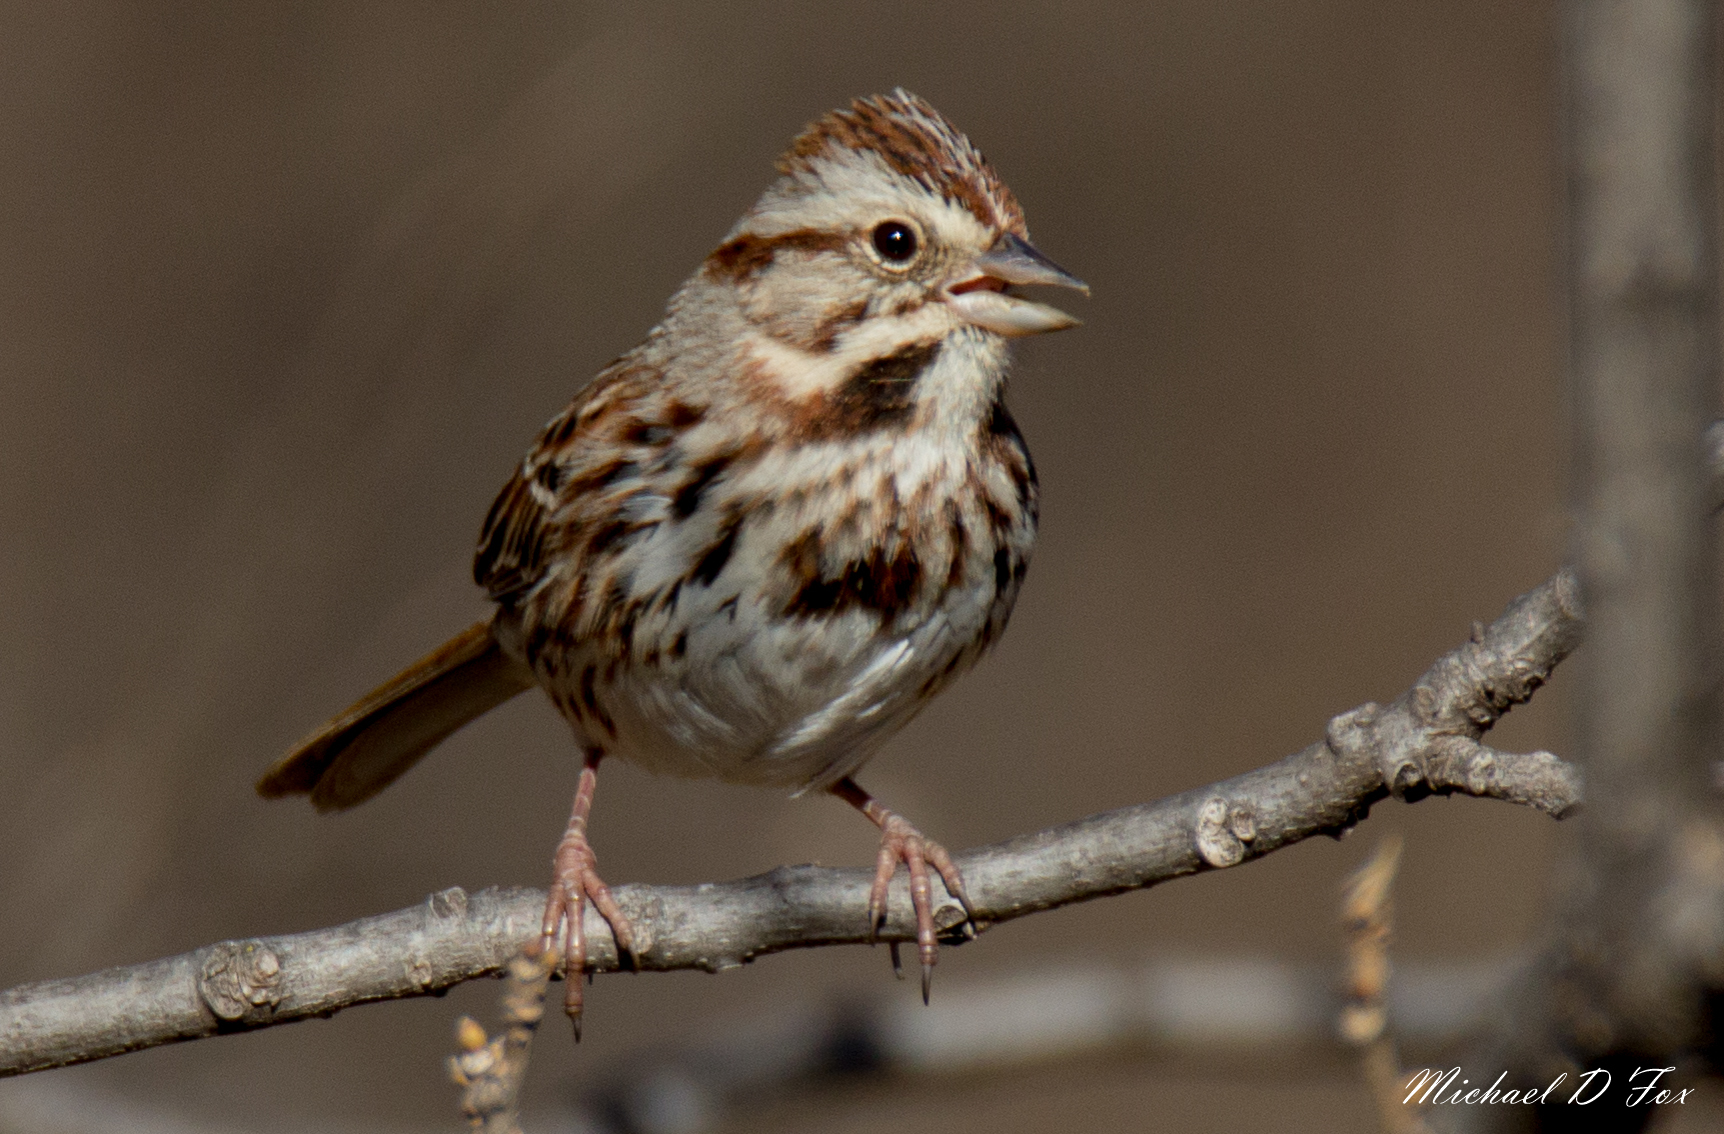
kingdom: Animalia
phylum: Chordata
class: Aves
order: Passeriformes
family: Passerellidae
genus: Melospiza
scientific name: Melospiza melodia
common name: Song sparrow
